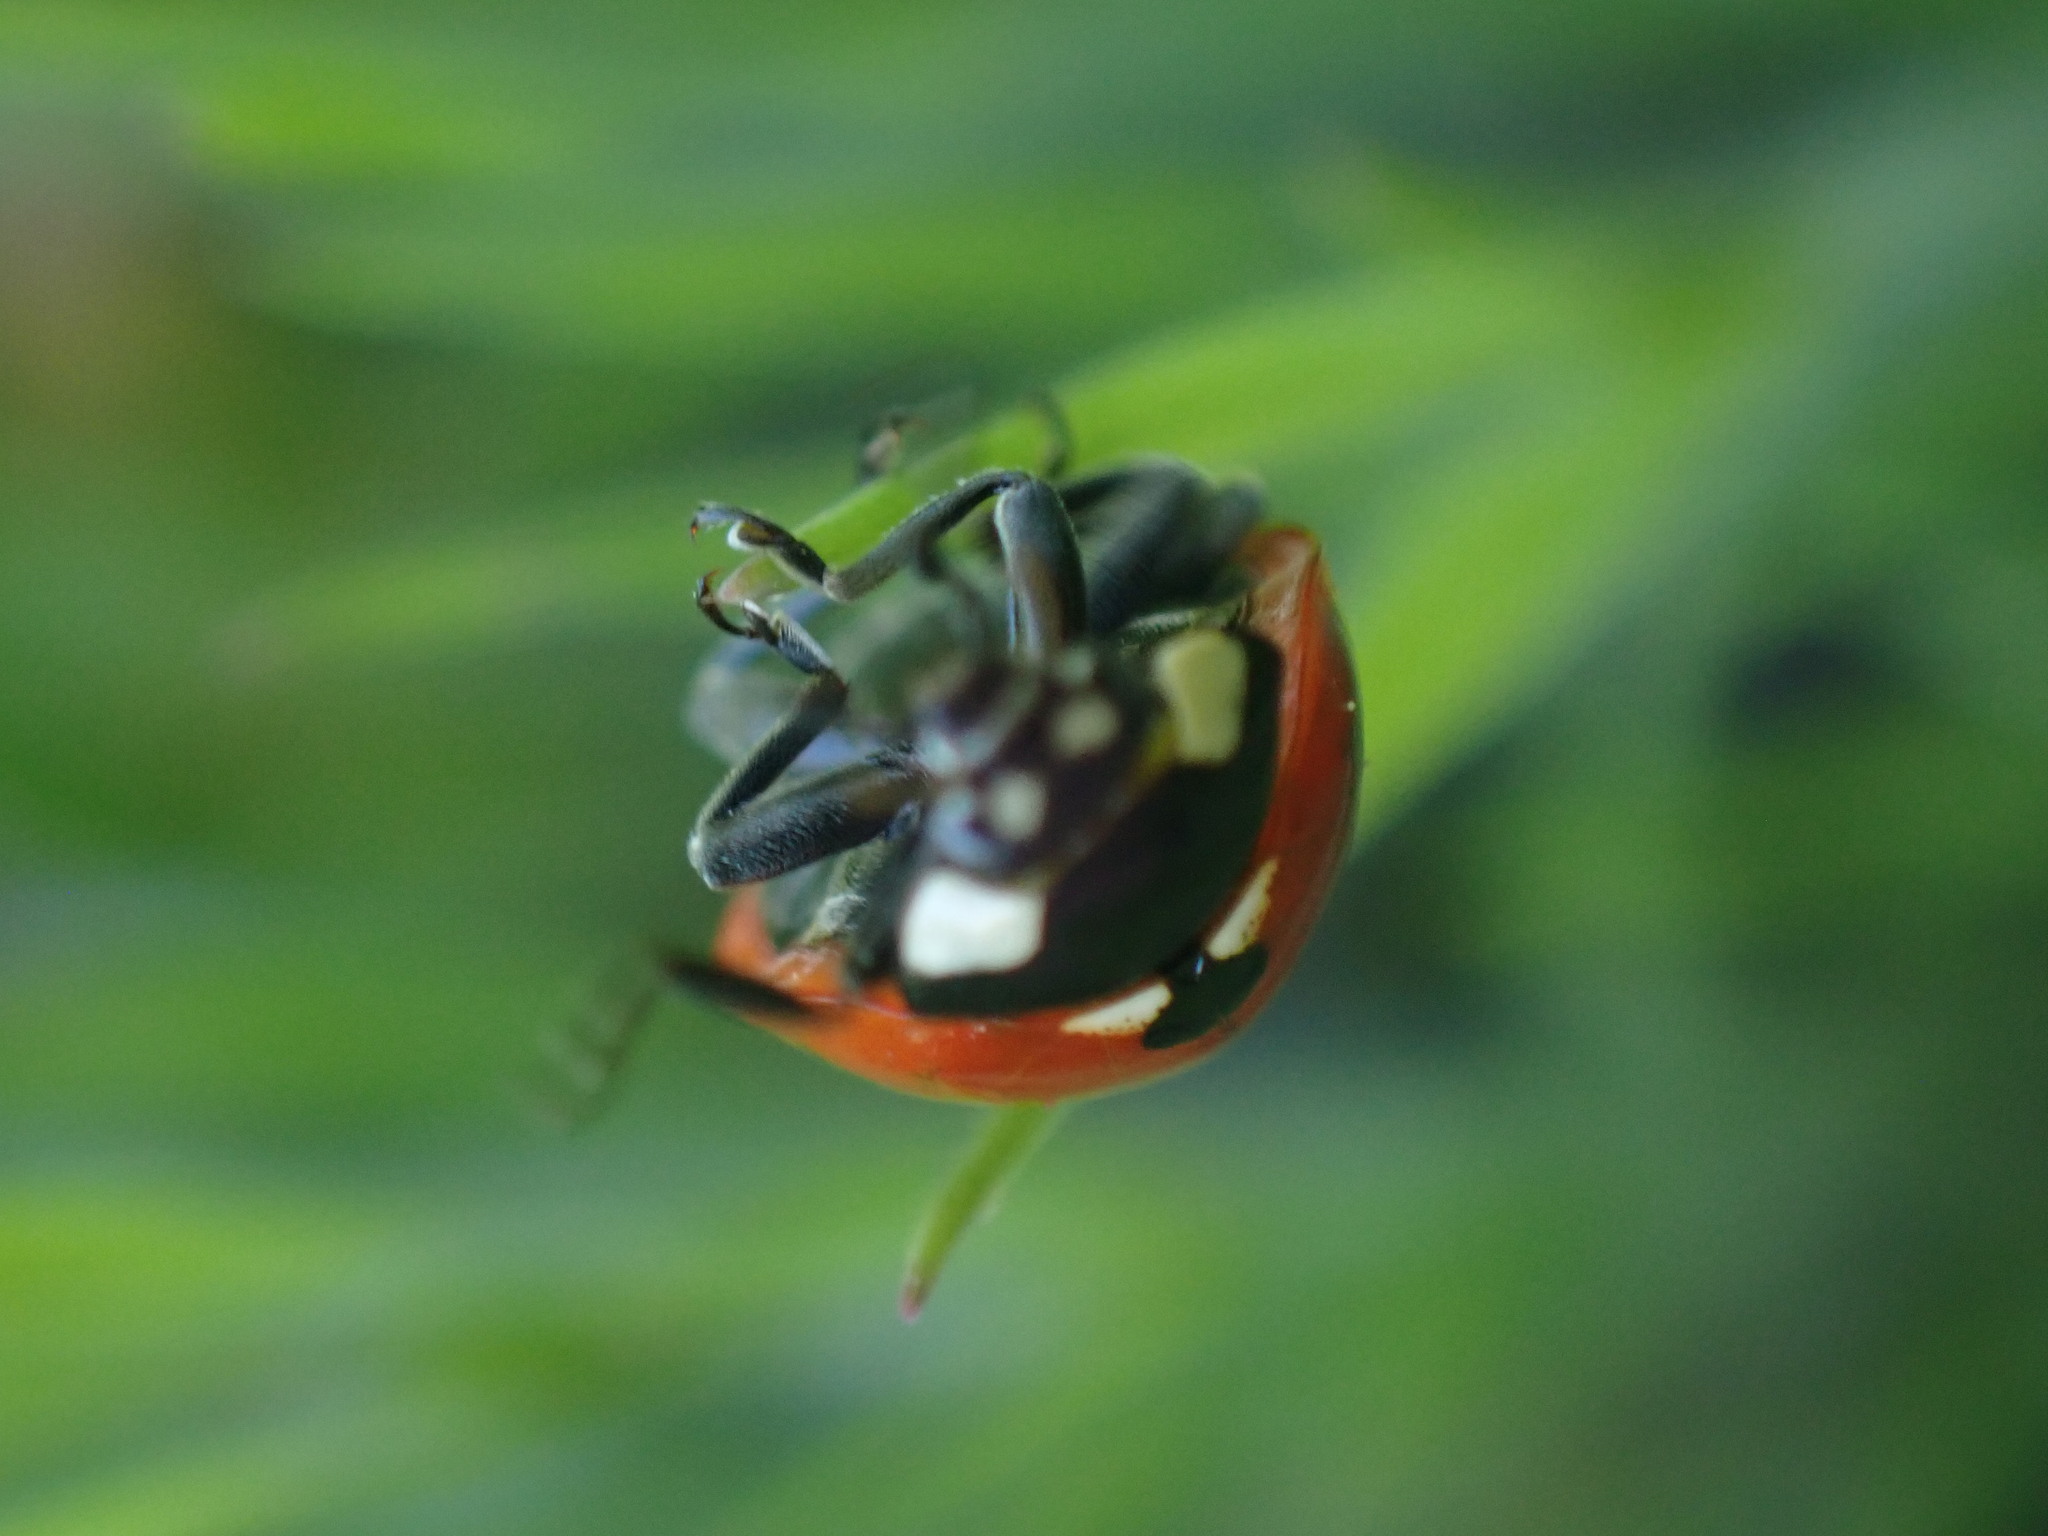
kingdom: Animalia
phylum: Arthropoda
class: Insecta
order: Coleoptera
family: Coccinellidae
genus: Coccinella
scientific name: Coccinella septempunctata
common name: Sevenspotted lady beetle
